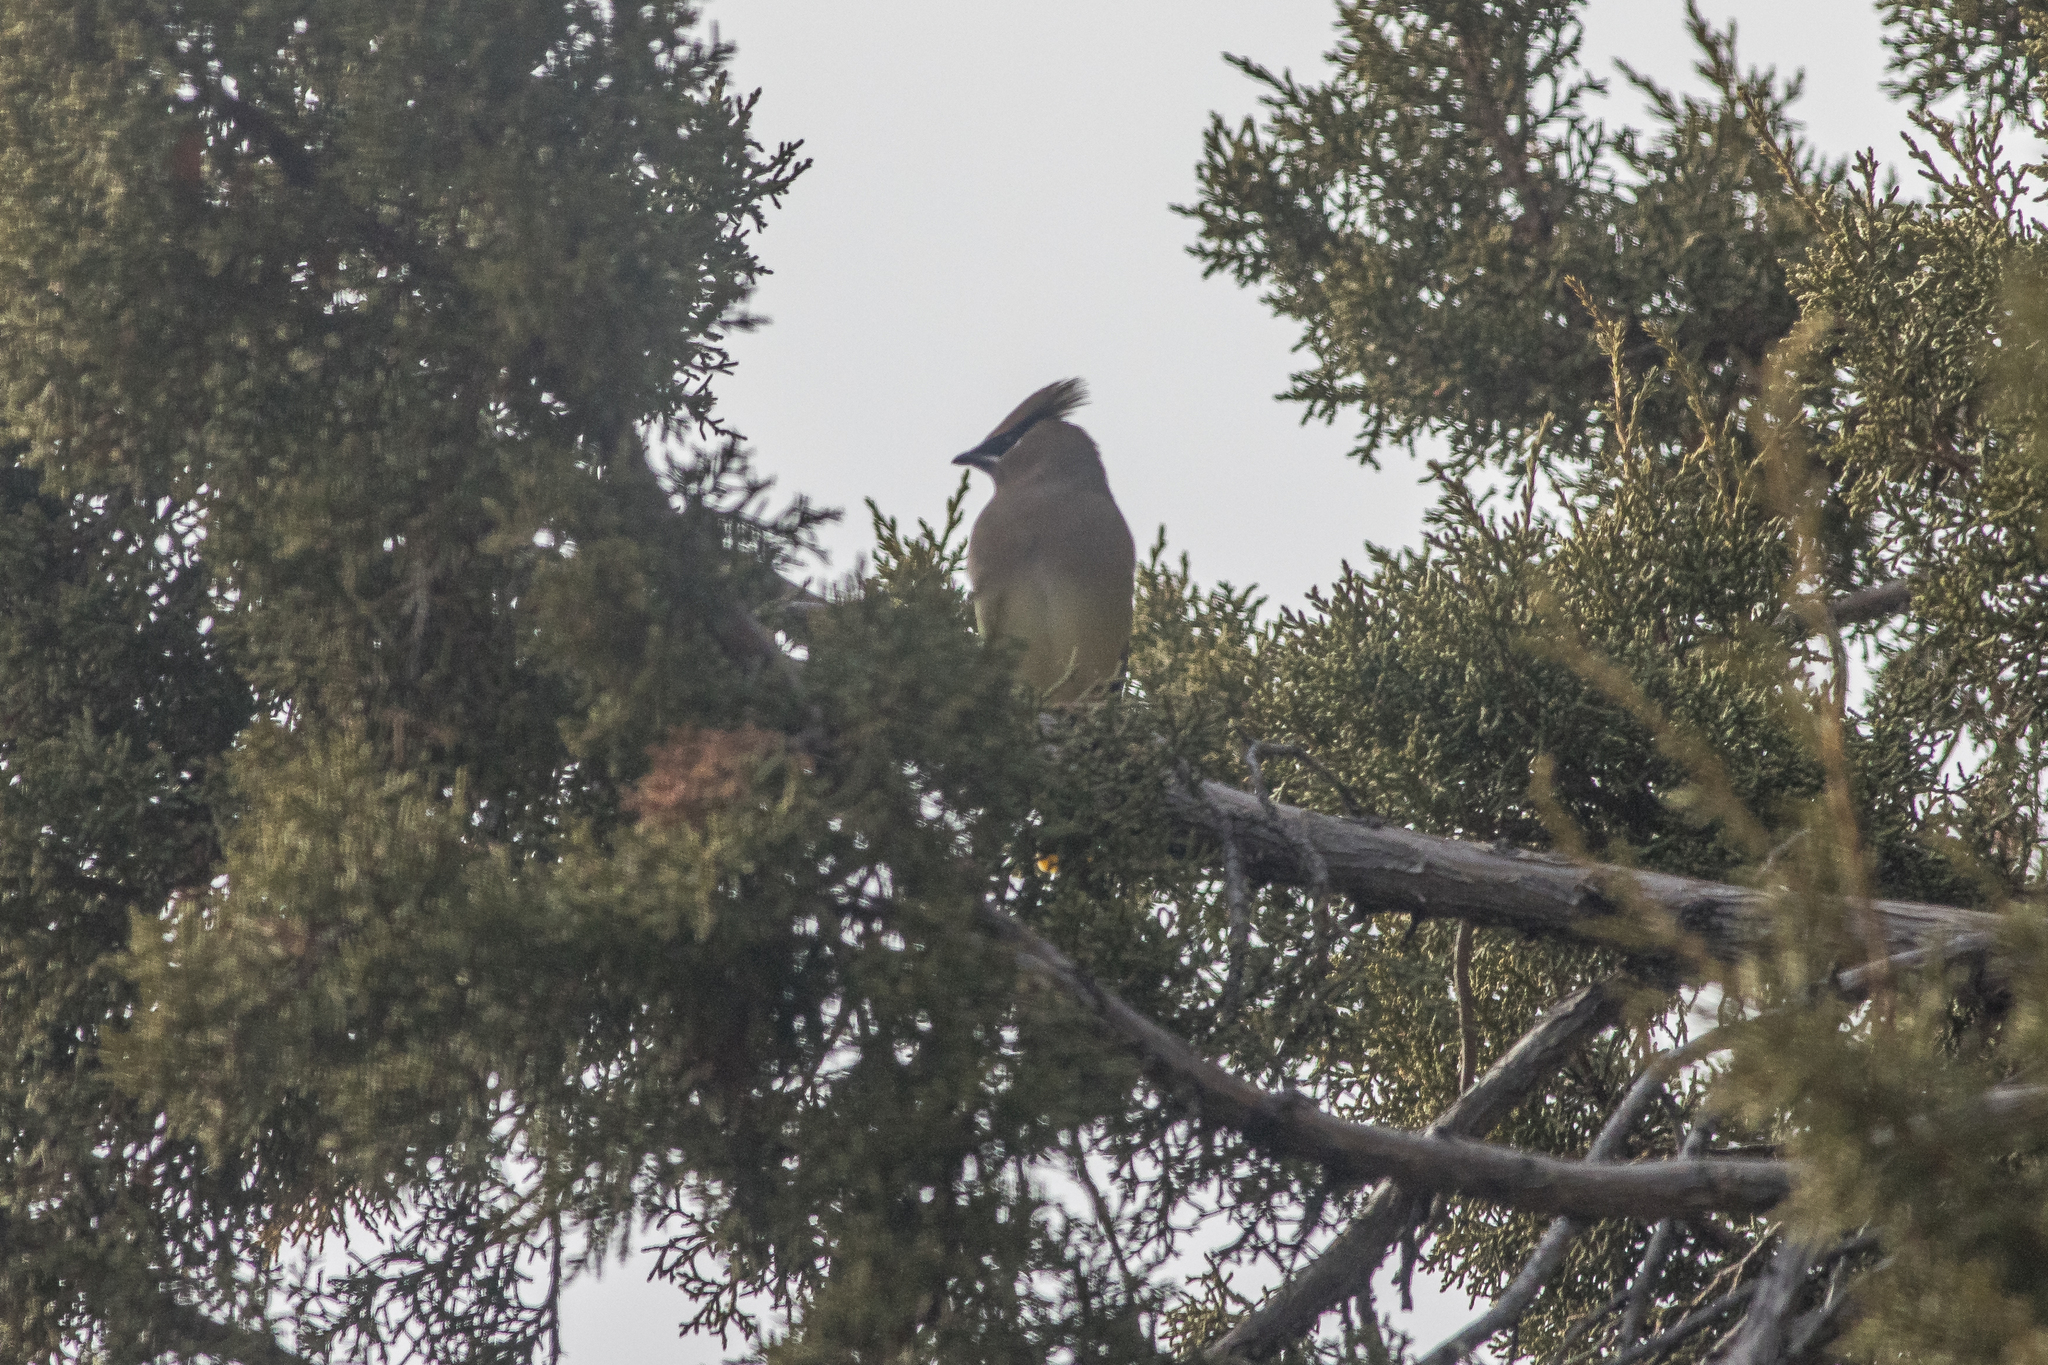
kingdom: Animalia
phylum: Chordata
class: Aves
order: Passeriformes
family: Bombycillidae
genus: Bombycilla
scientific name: Bombycilla cedrorum
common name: Cedar waxwing
